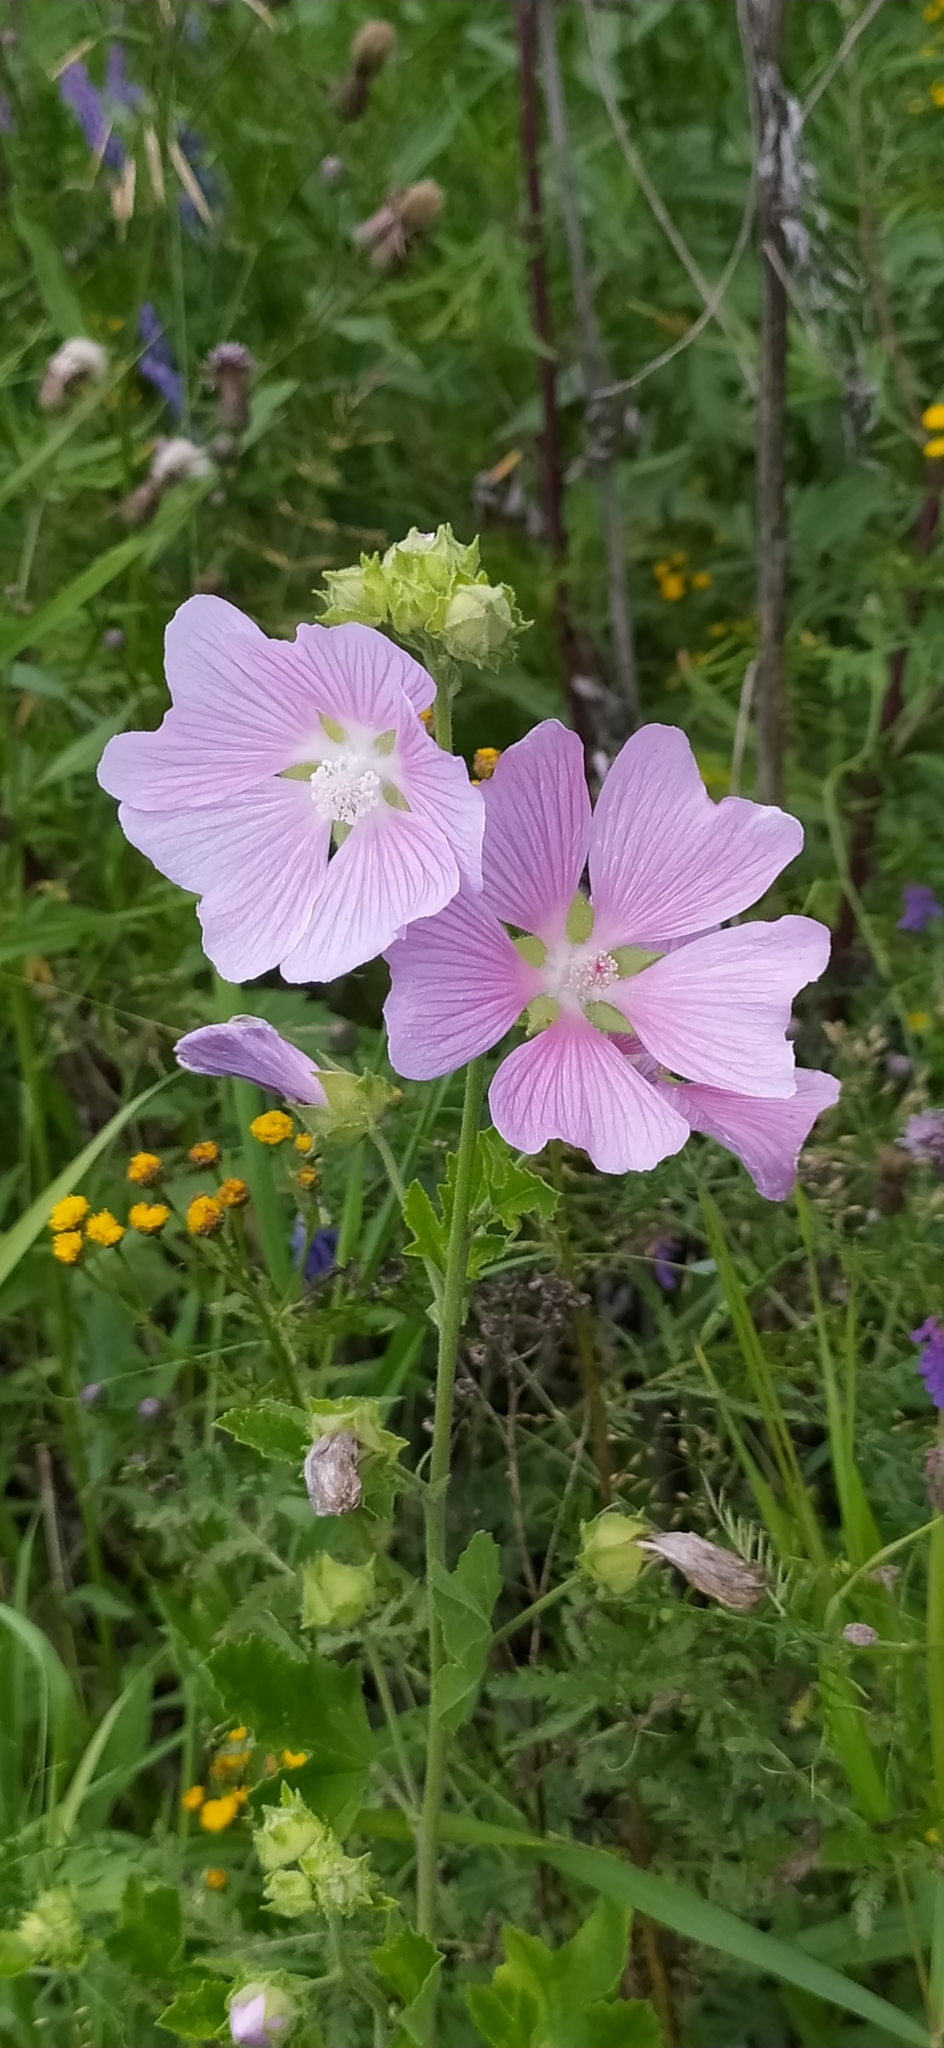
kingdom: Plantae
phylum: Tracheophyta
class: Magnoliopsida
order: Malvales
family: Malvaceae
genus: Malva
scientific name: Malva thuringiaca
